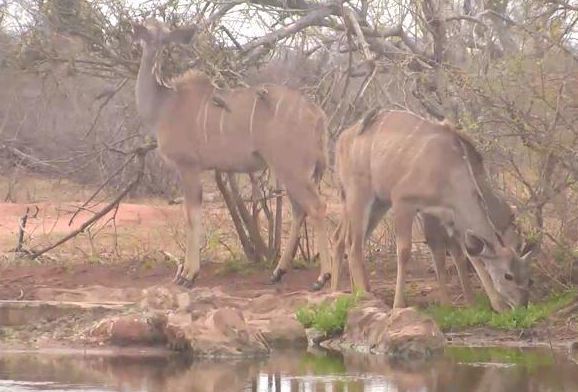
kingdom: Animalia
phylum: Chordata
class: Mammalia
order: Artiodactyla
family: Bovidae
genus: Tragelaphus
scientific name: Tragelaphus strepsiceros
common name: Greater kudu
